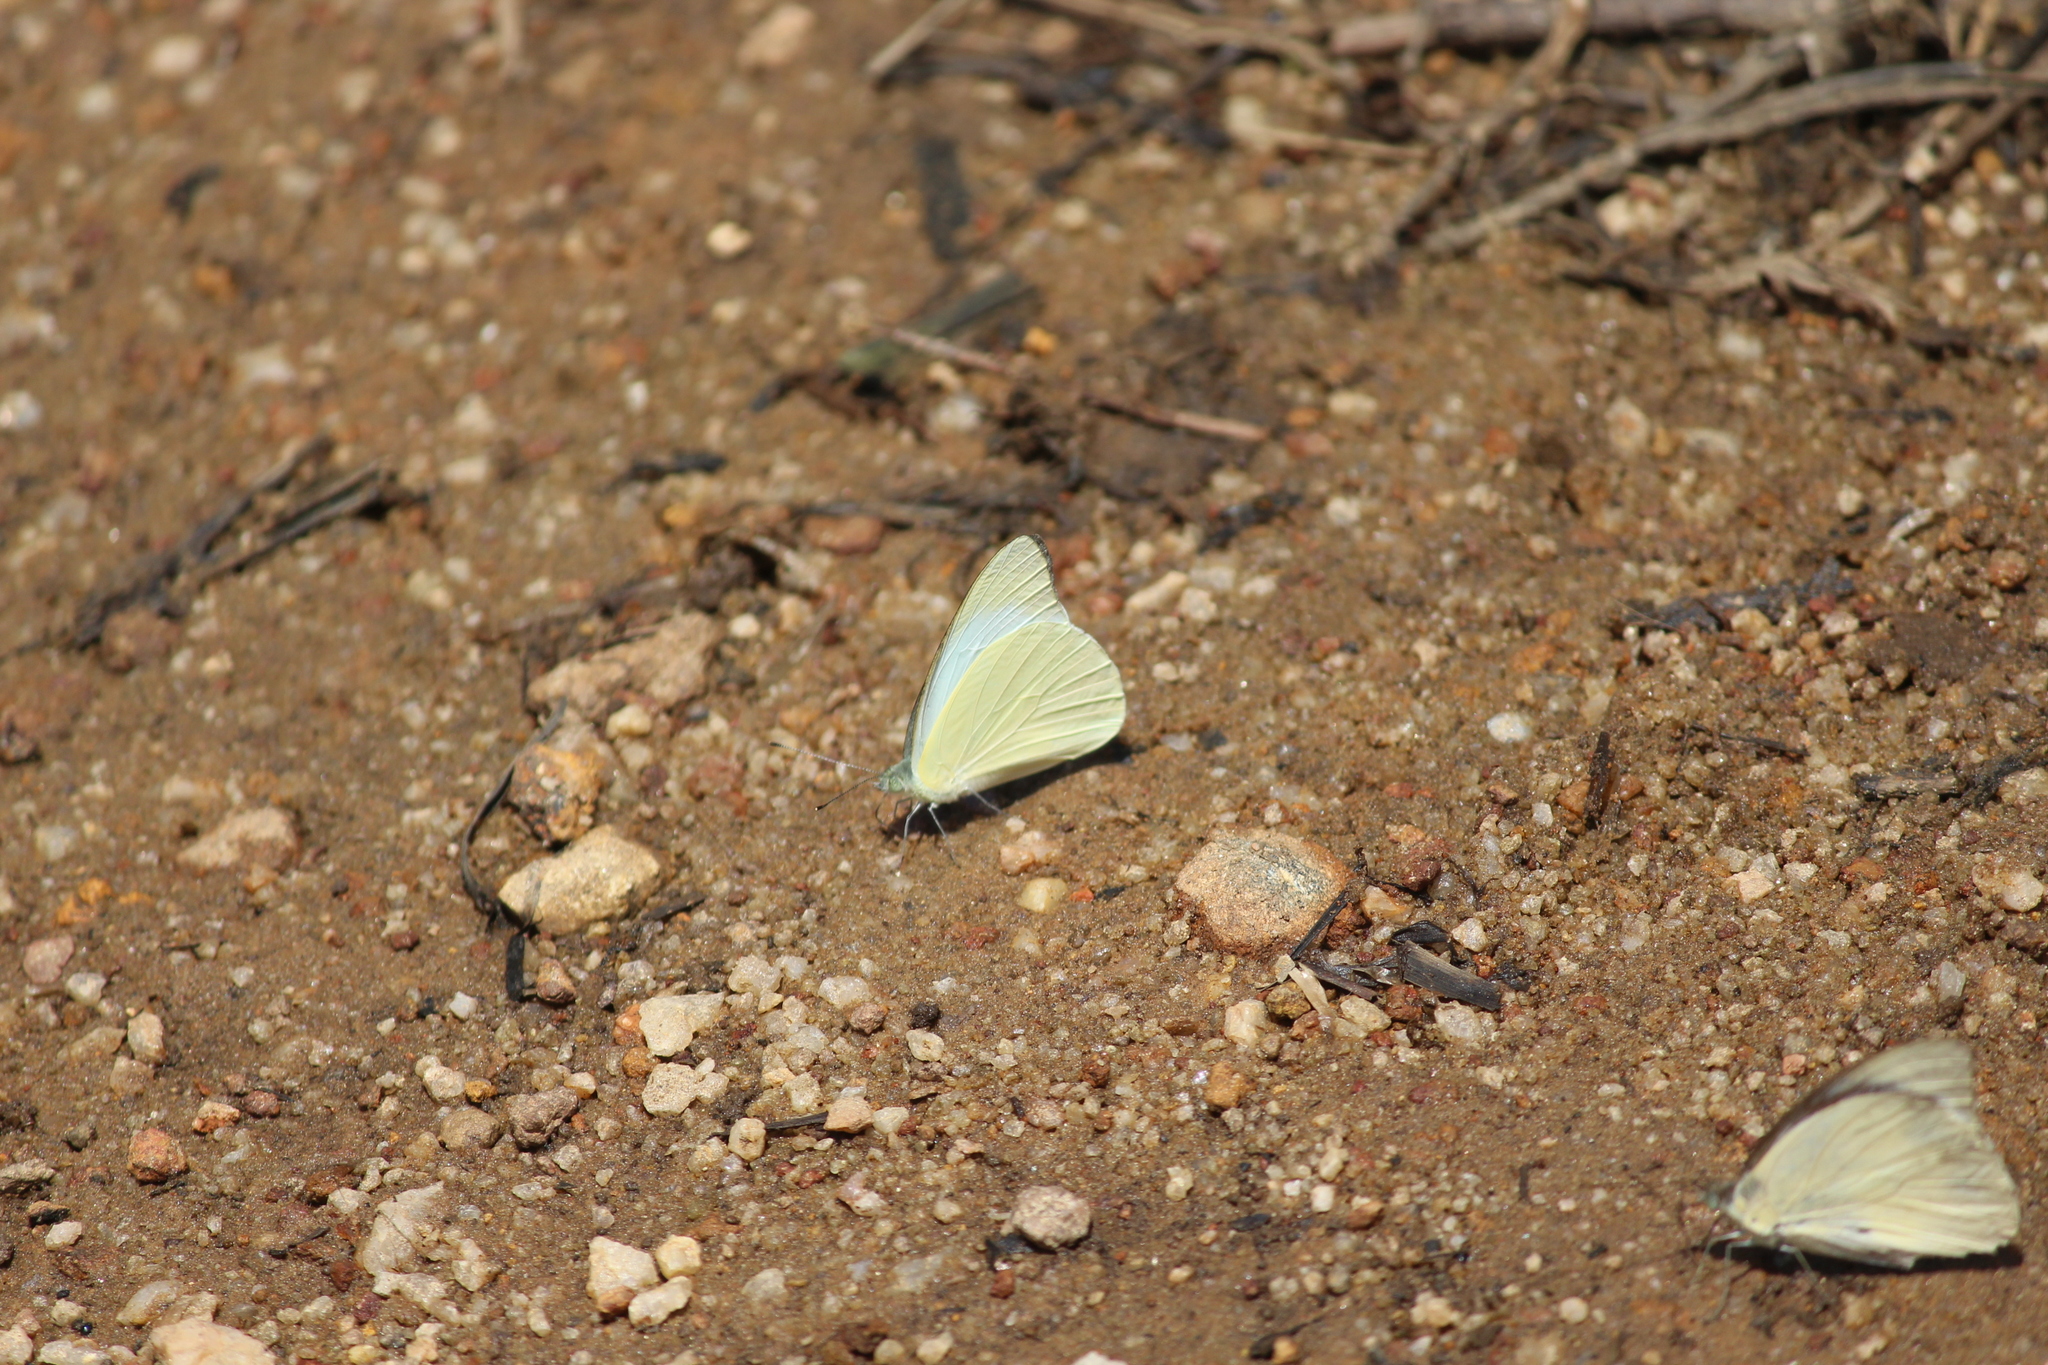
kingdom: Animalia
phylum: Arthropoda
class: Insecta
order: Lepidoptera
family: Pieridae
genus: Appias
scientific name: Appias albina
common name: Common albatross
